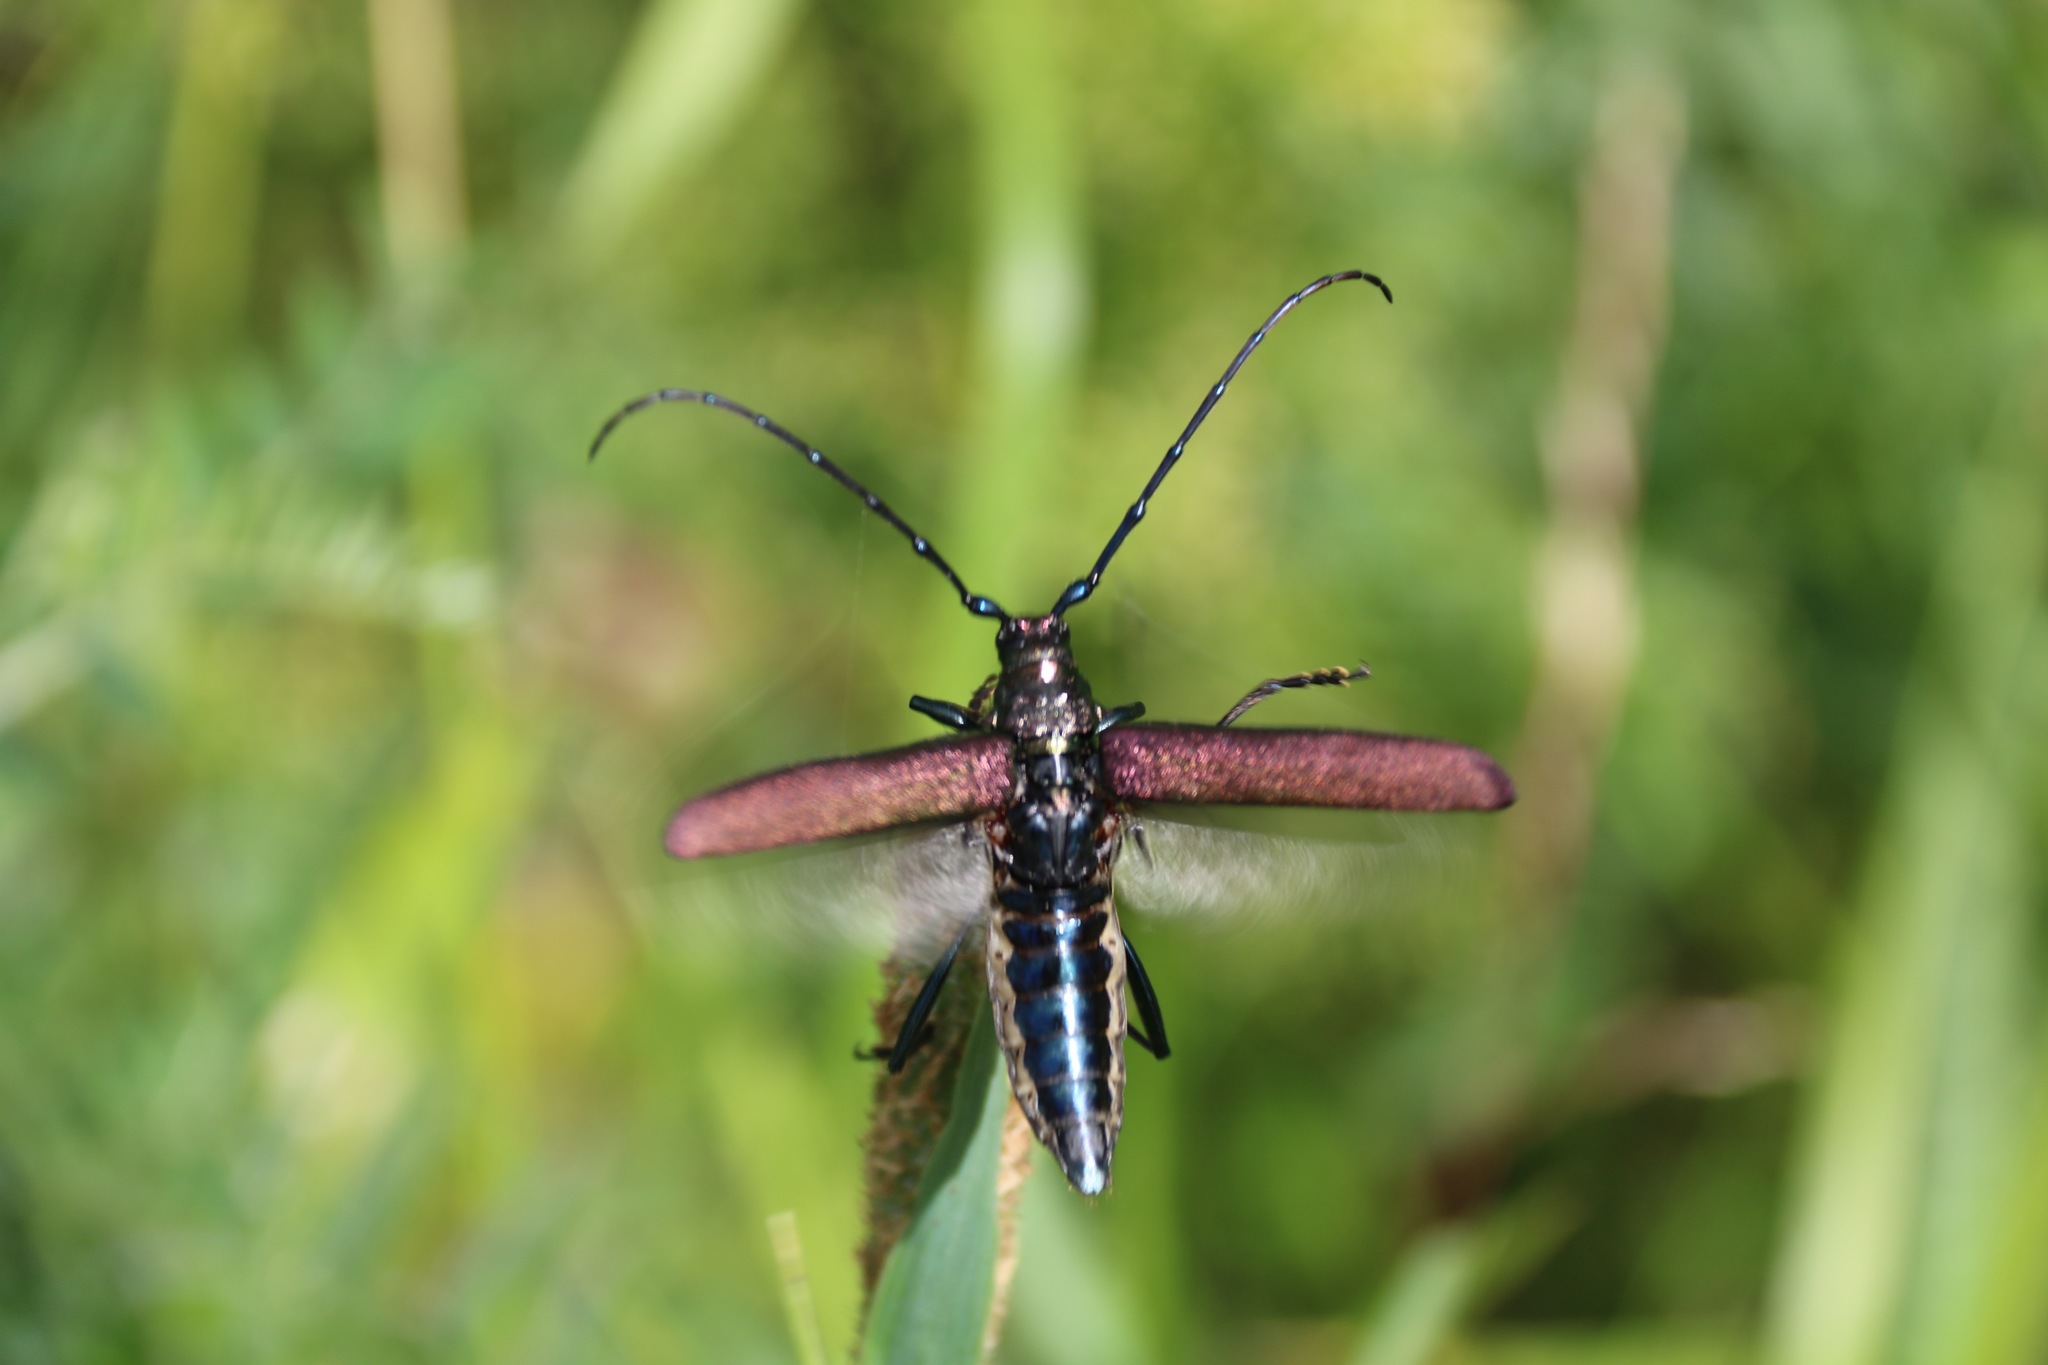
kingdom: Animalia
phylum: Arthropoda
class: Insecta
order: Coleoptera
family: Cerambycidae
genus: Aromia
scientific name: Aromia moschata
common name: Musk beetle
